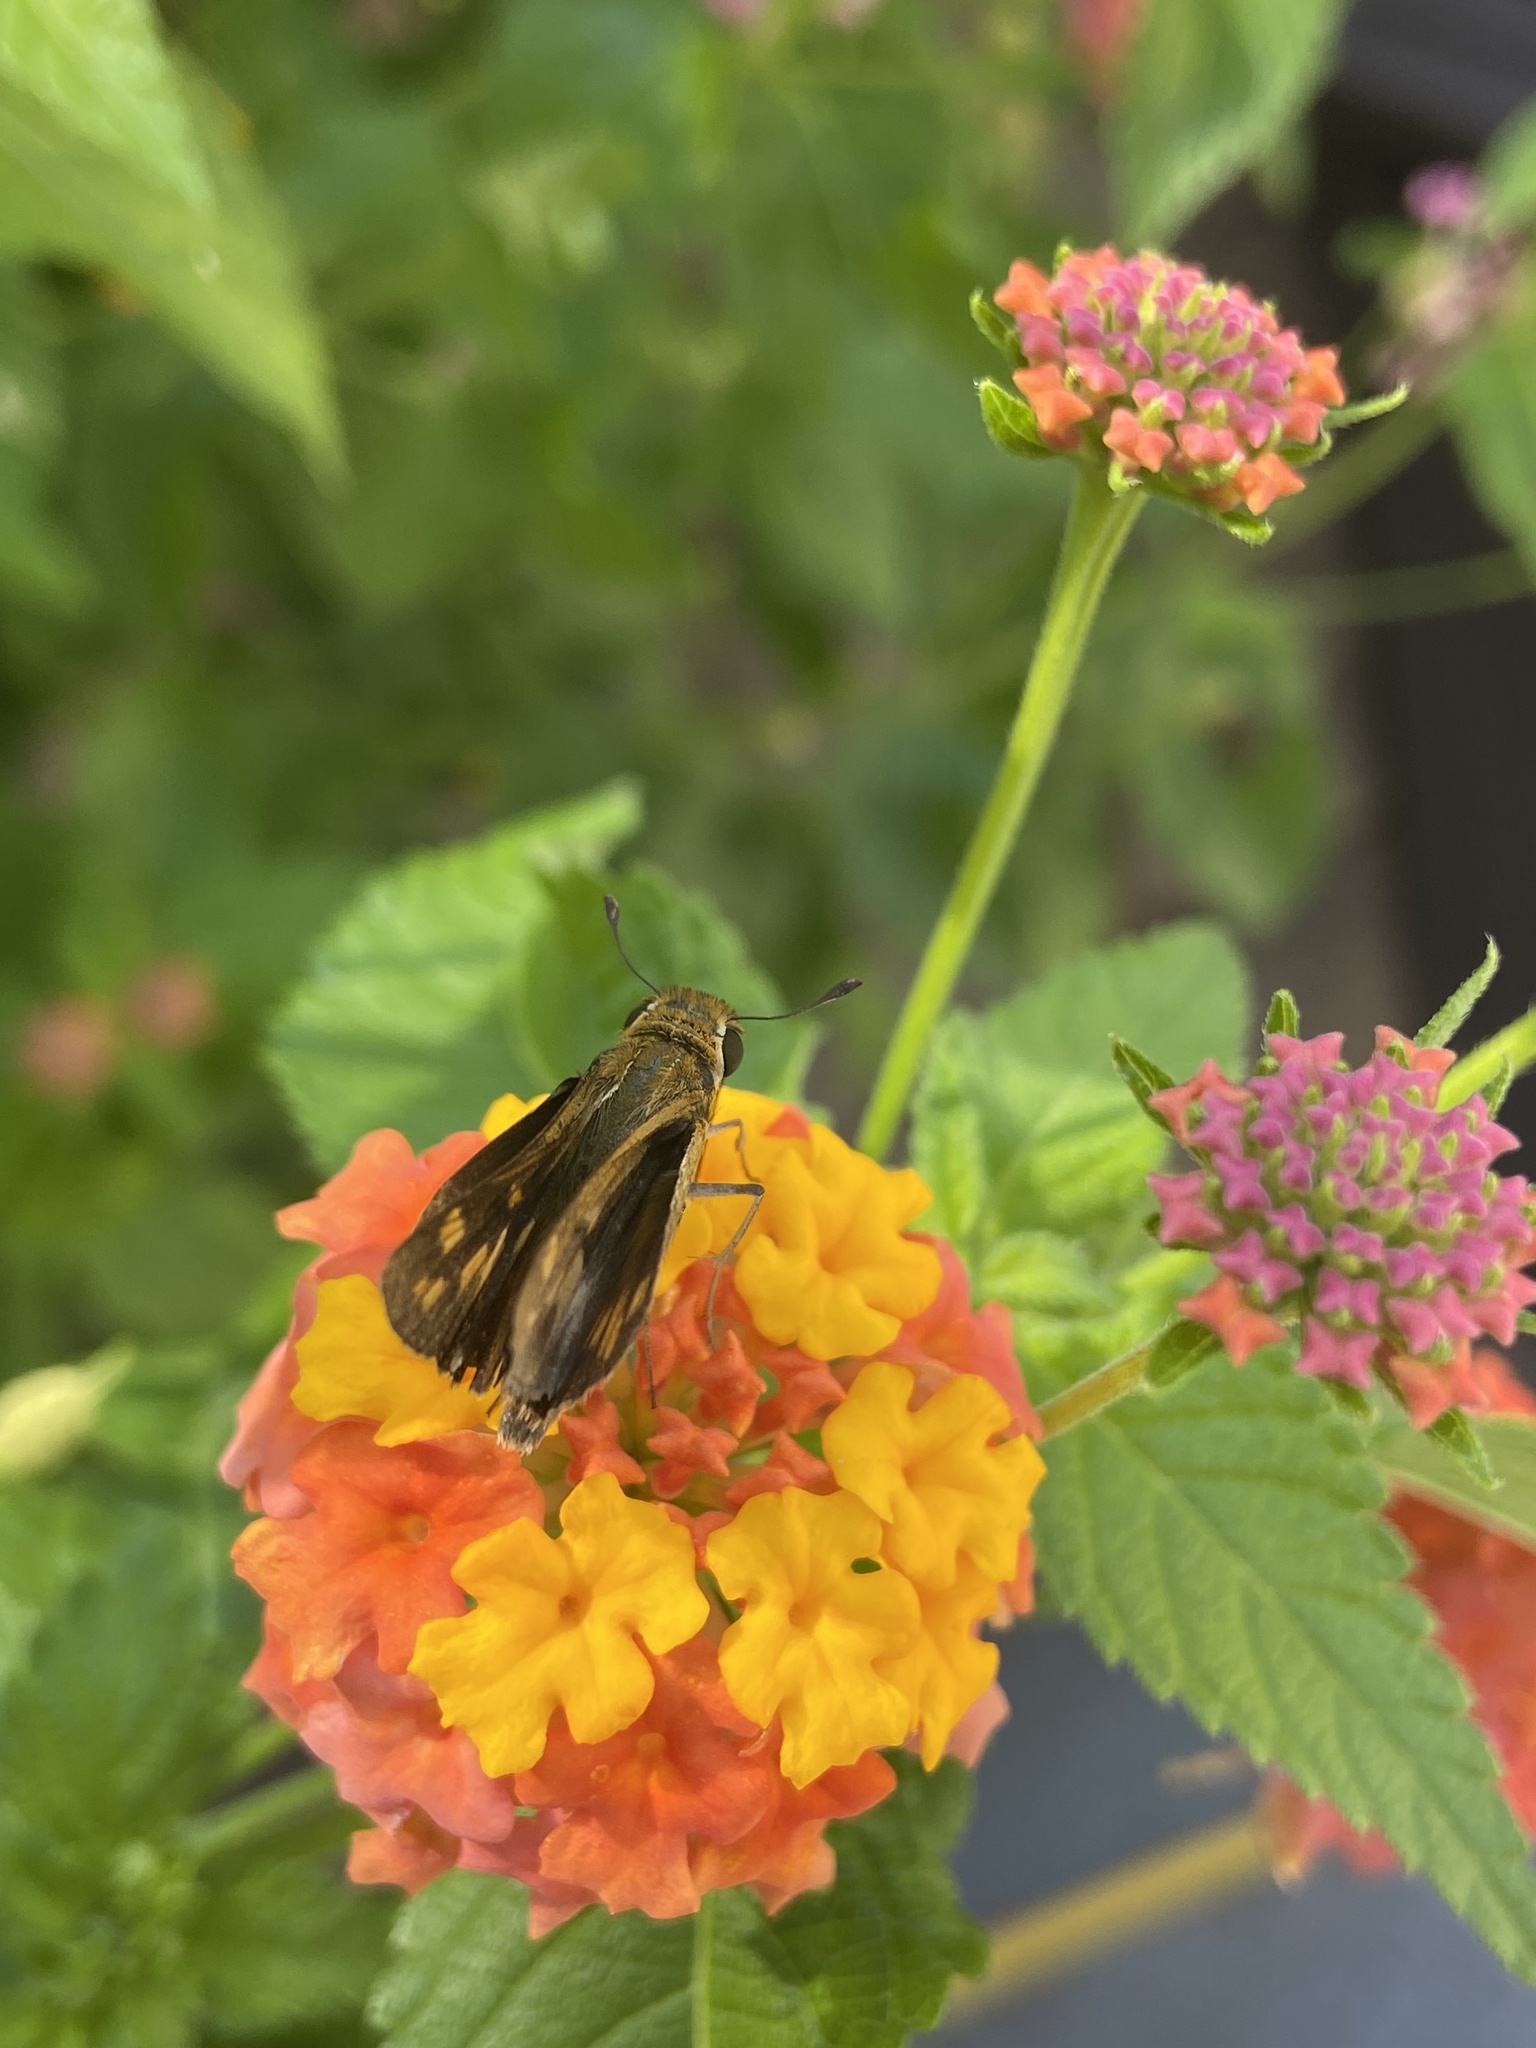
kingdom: Animalia
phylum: Arthropoda
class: Insecta
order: Lepidoptera
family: Hesperiidae
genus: Hylephila
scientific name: Hylephila phyleus
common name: Fiery skipper
